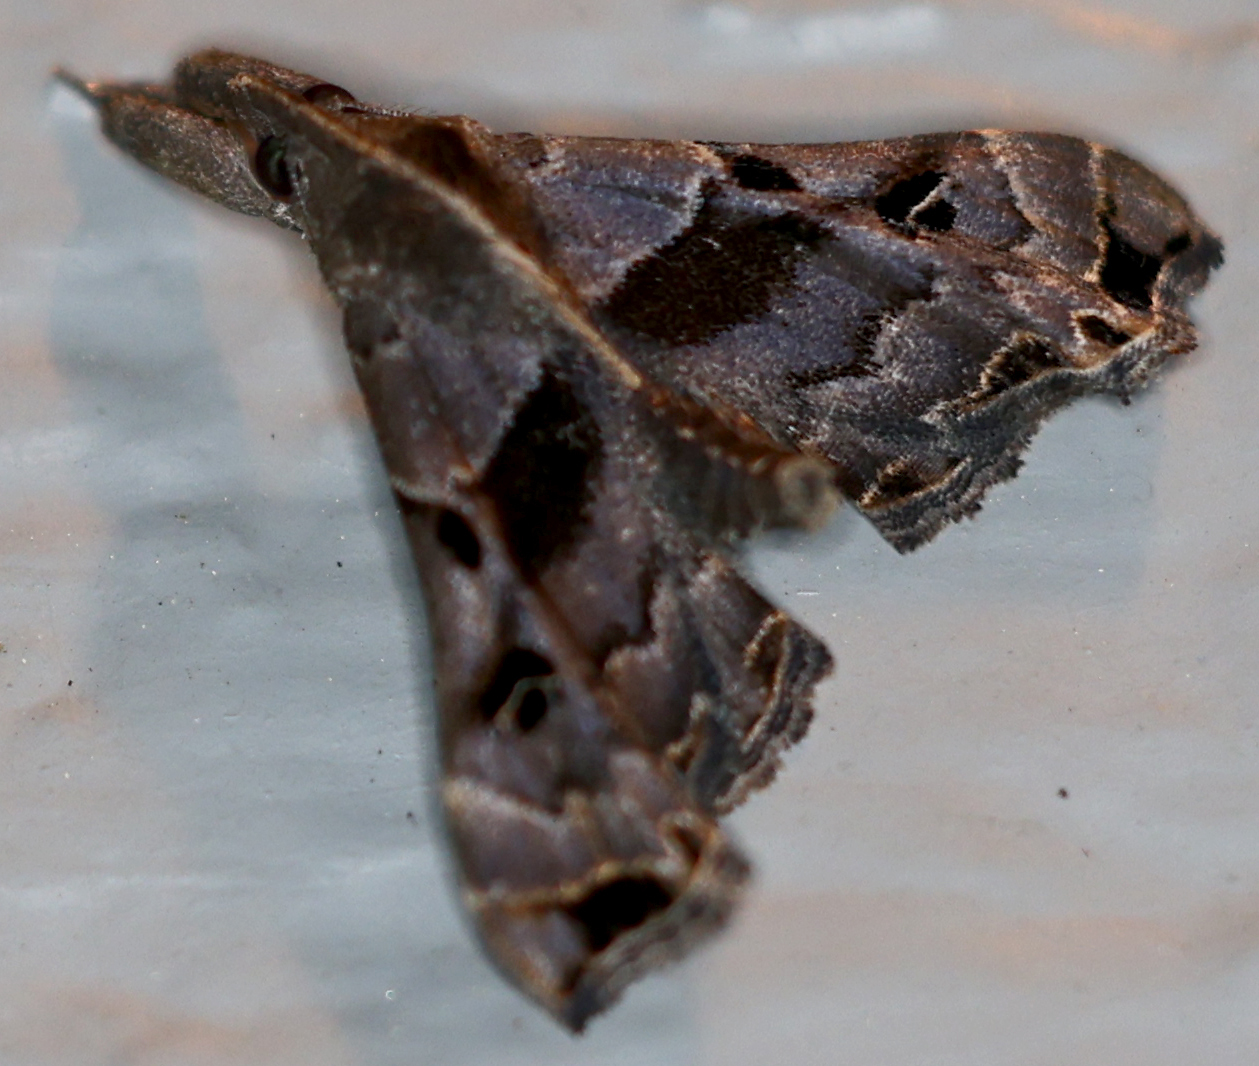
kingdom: Animalia
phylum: Arthropoda
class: Insecta
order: Lepidoptera
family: Erebidae
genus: Palthis
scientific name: Palthis asopialis
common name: Faint-spotted palthis moth
